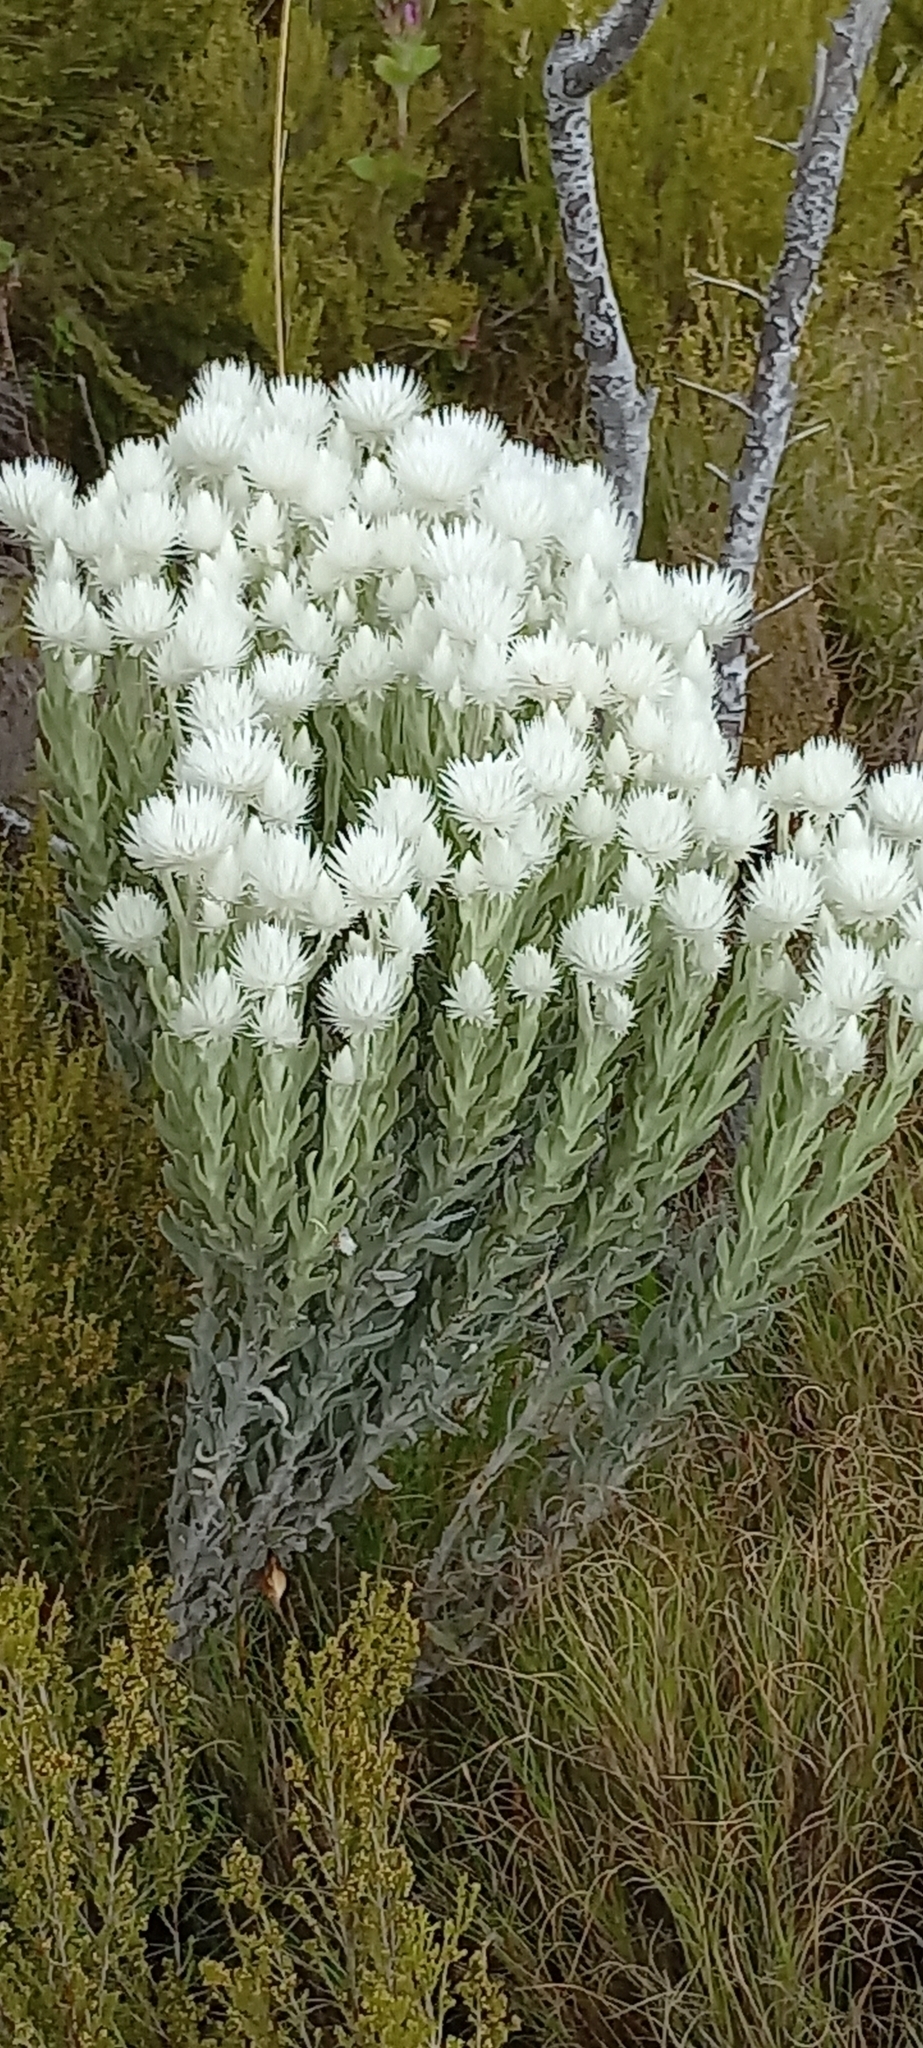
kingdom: Plantae
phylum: Tracheophyta
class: Magnoliopsida
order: Asterales
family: Asteraceae
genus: Syncarpha
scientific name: Syncarpha vestita
